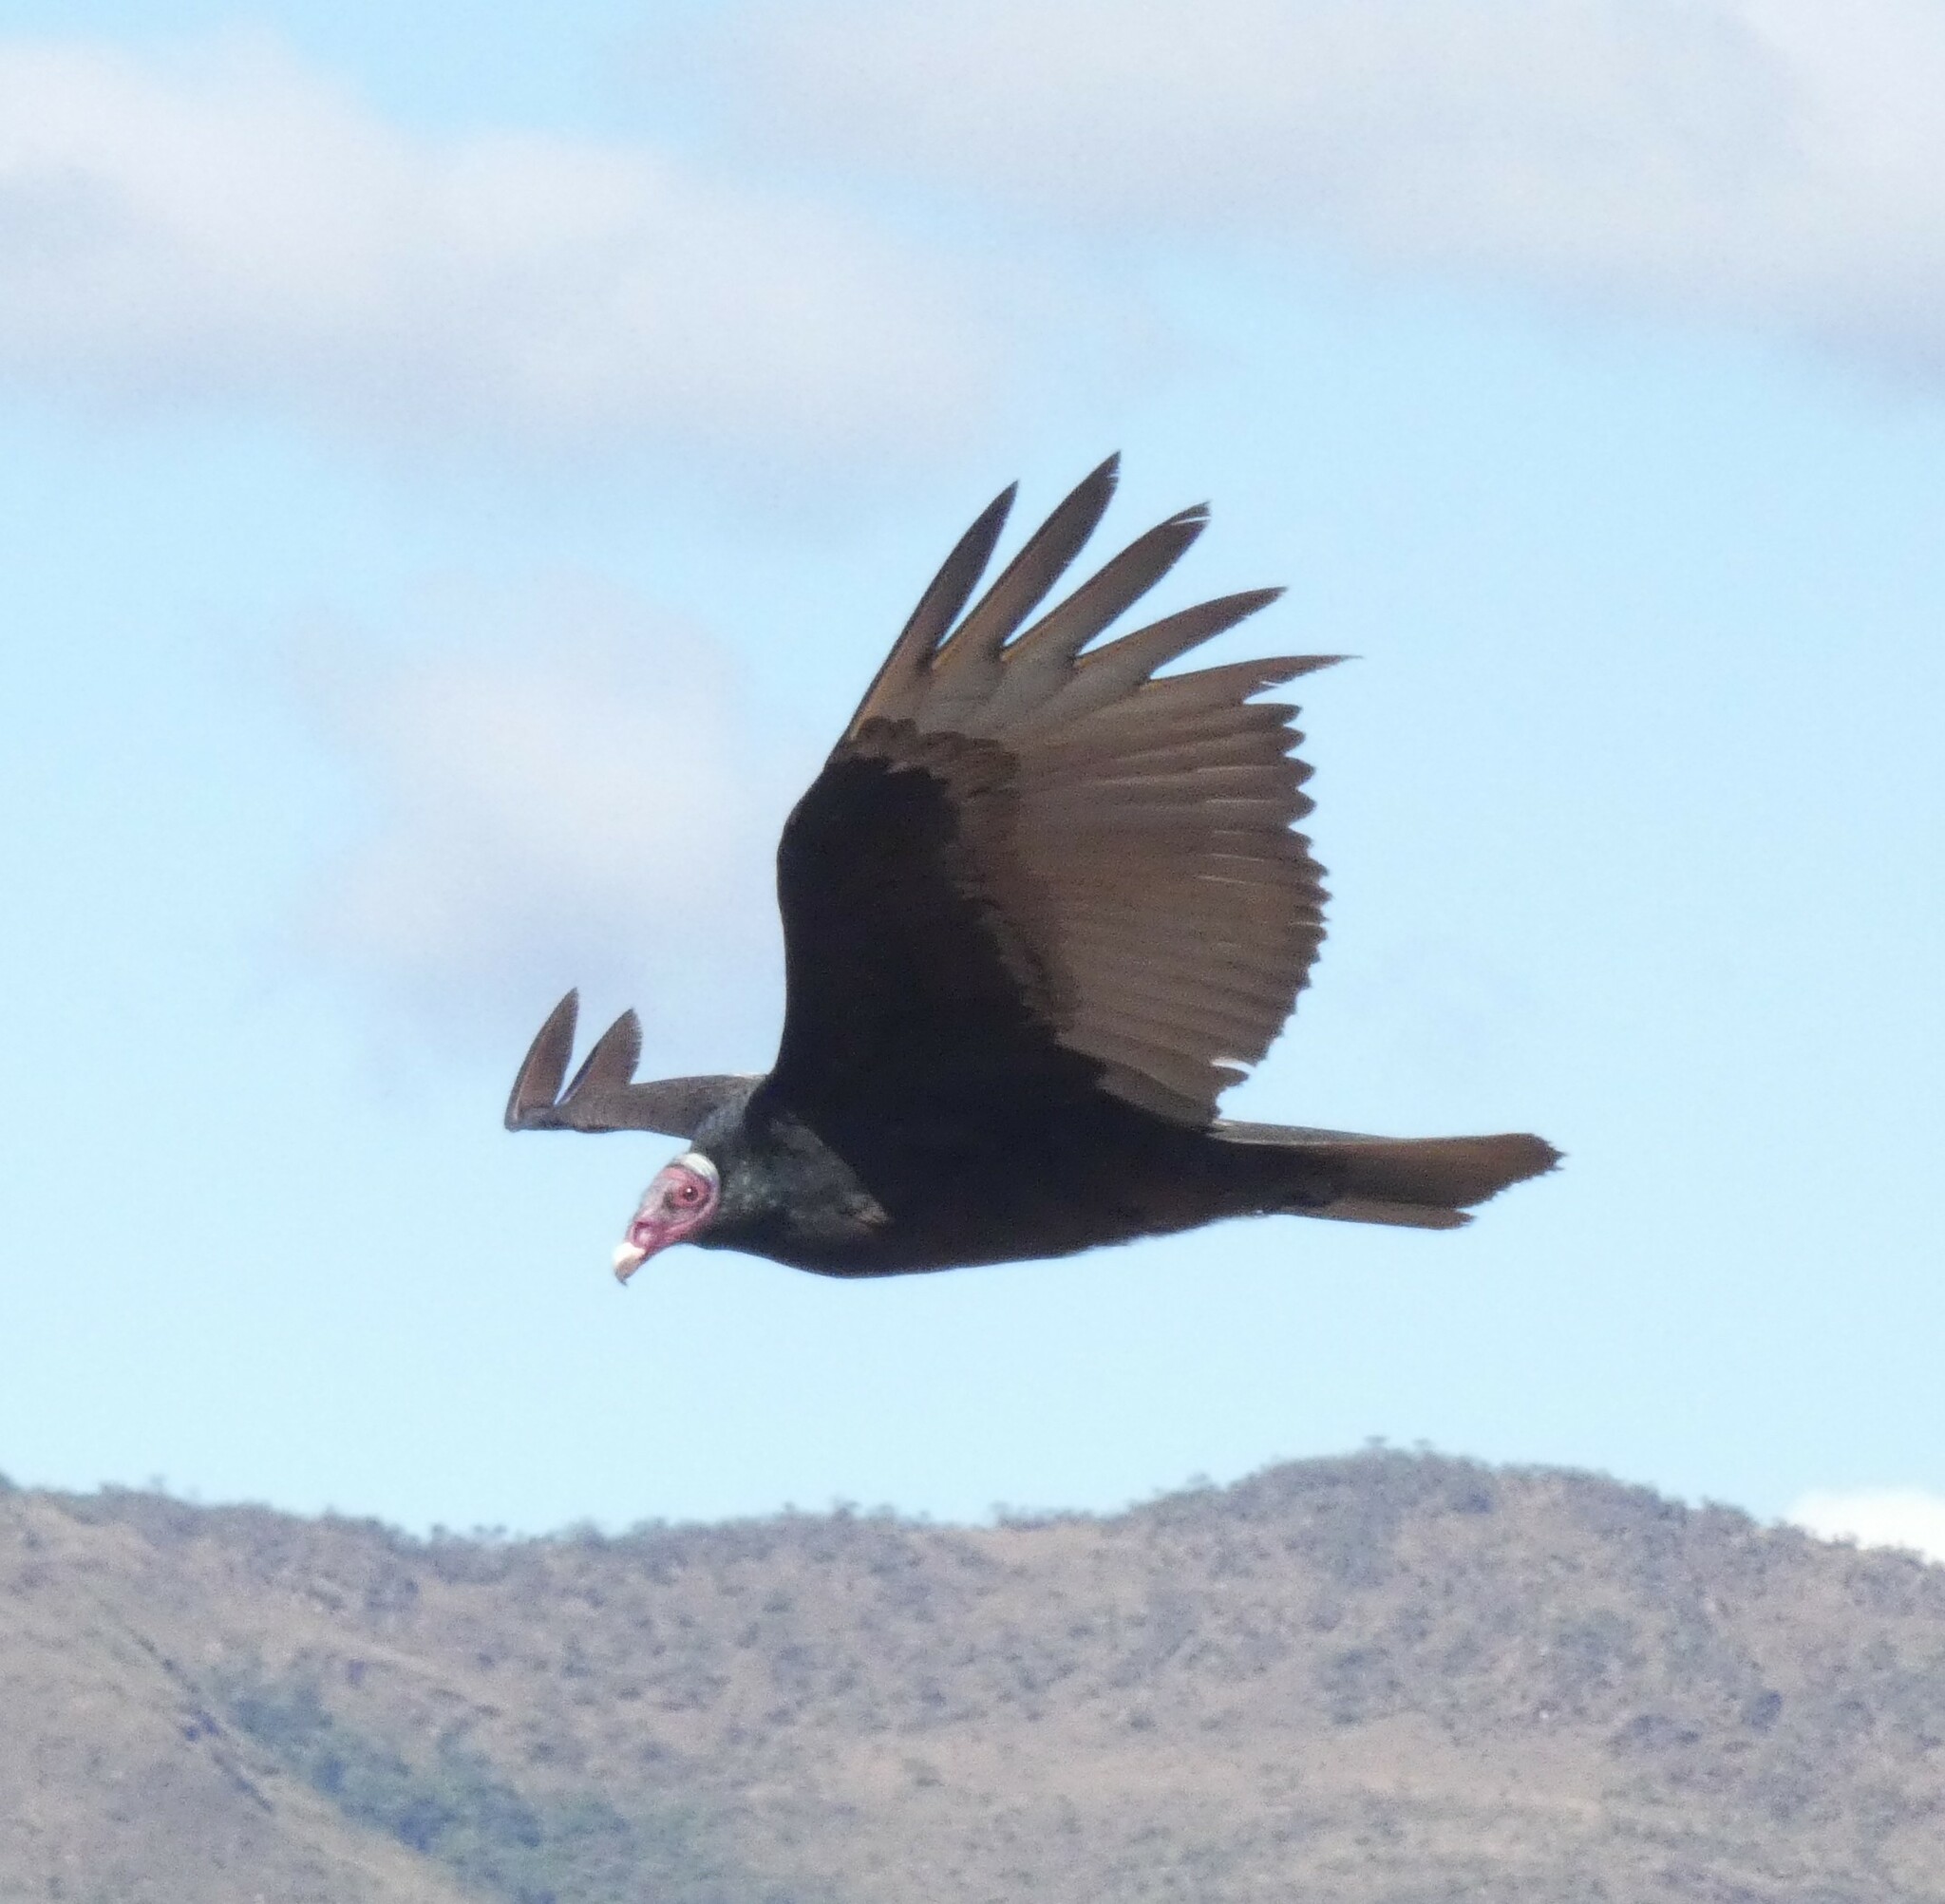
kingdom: Animalia
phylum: Chordata
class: Aves
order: Accipitriformes
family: Cathartidae
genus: Cathartes
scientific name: Cathartes aura
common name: Turkey vulture
